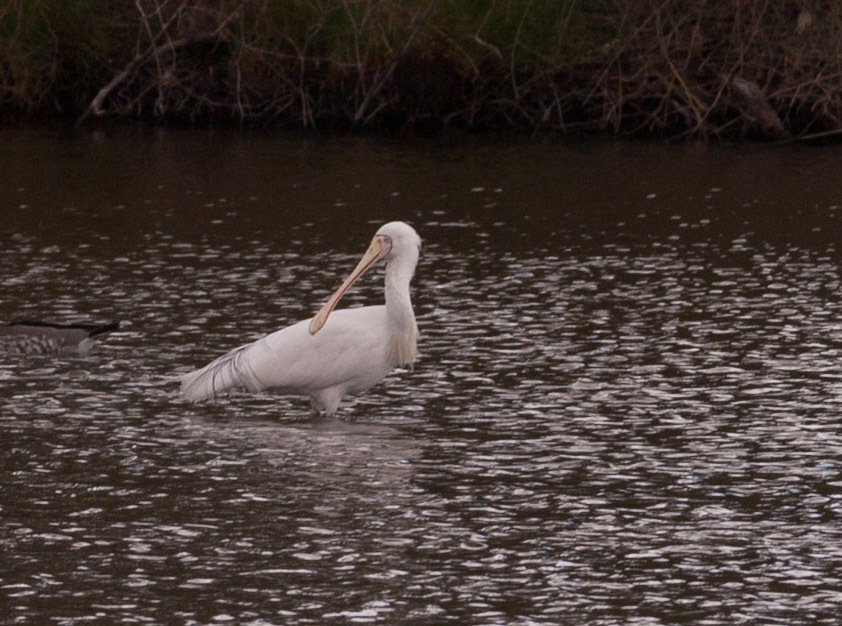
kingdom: Animalia
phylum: Chordata
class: Aves
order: Pelecaniformes
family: Threskiornithidae
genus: Platalea
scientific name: Platalea flavipes
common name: Yellow-billed spoonbill
